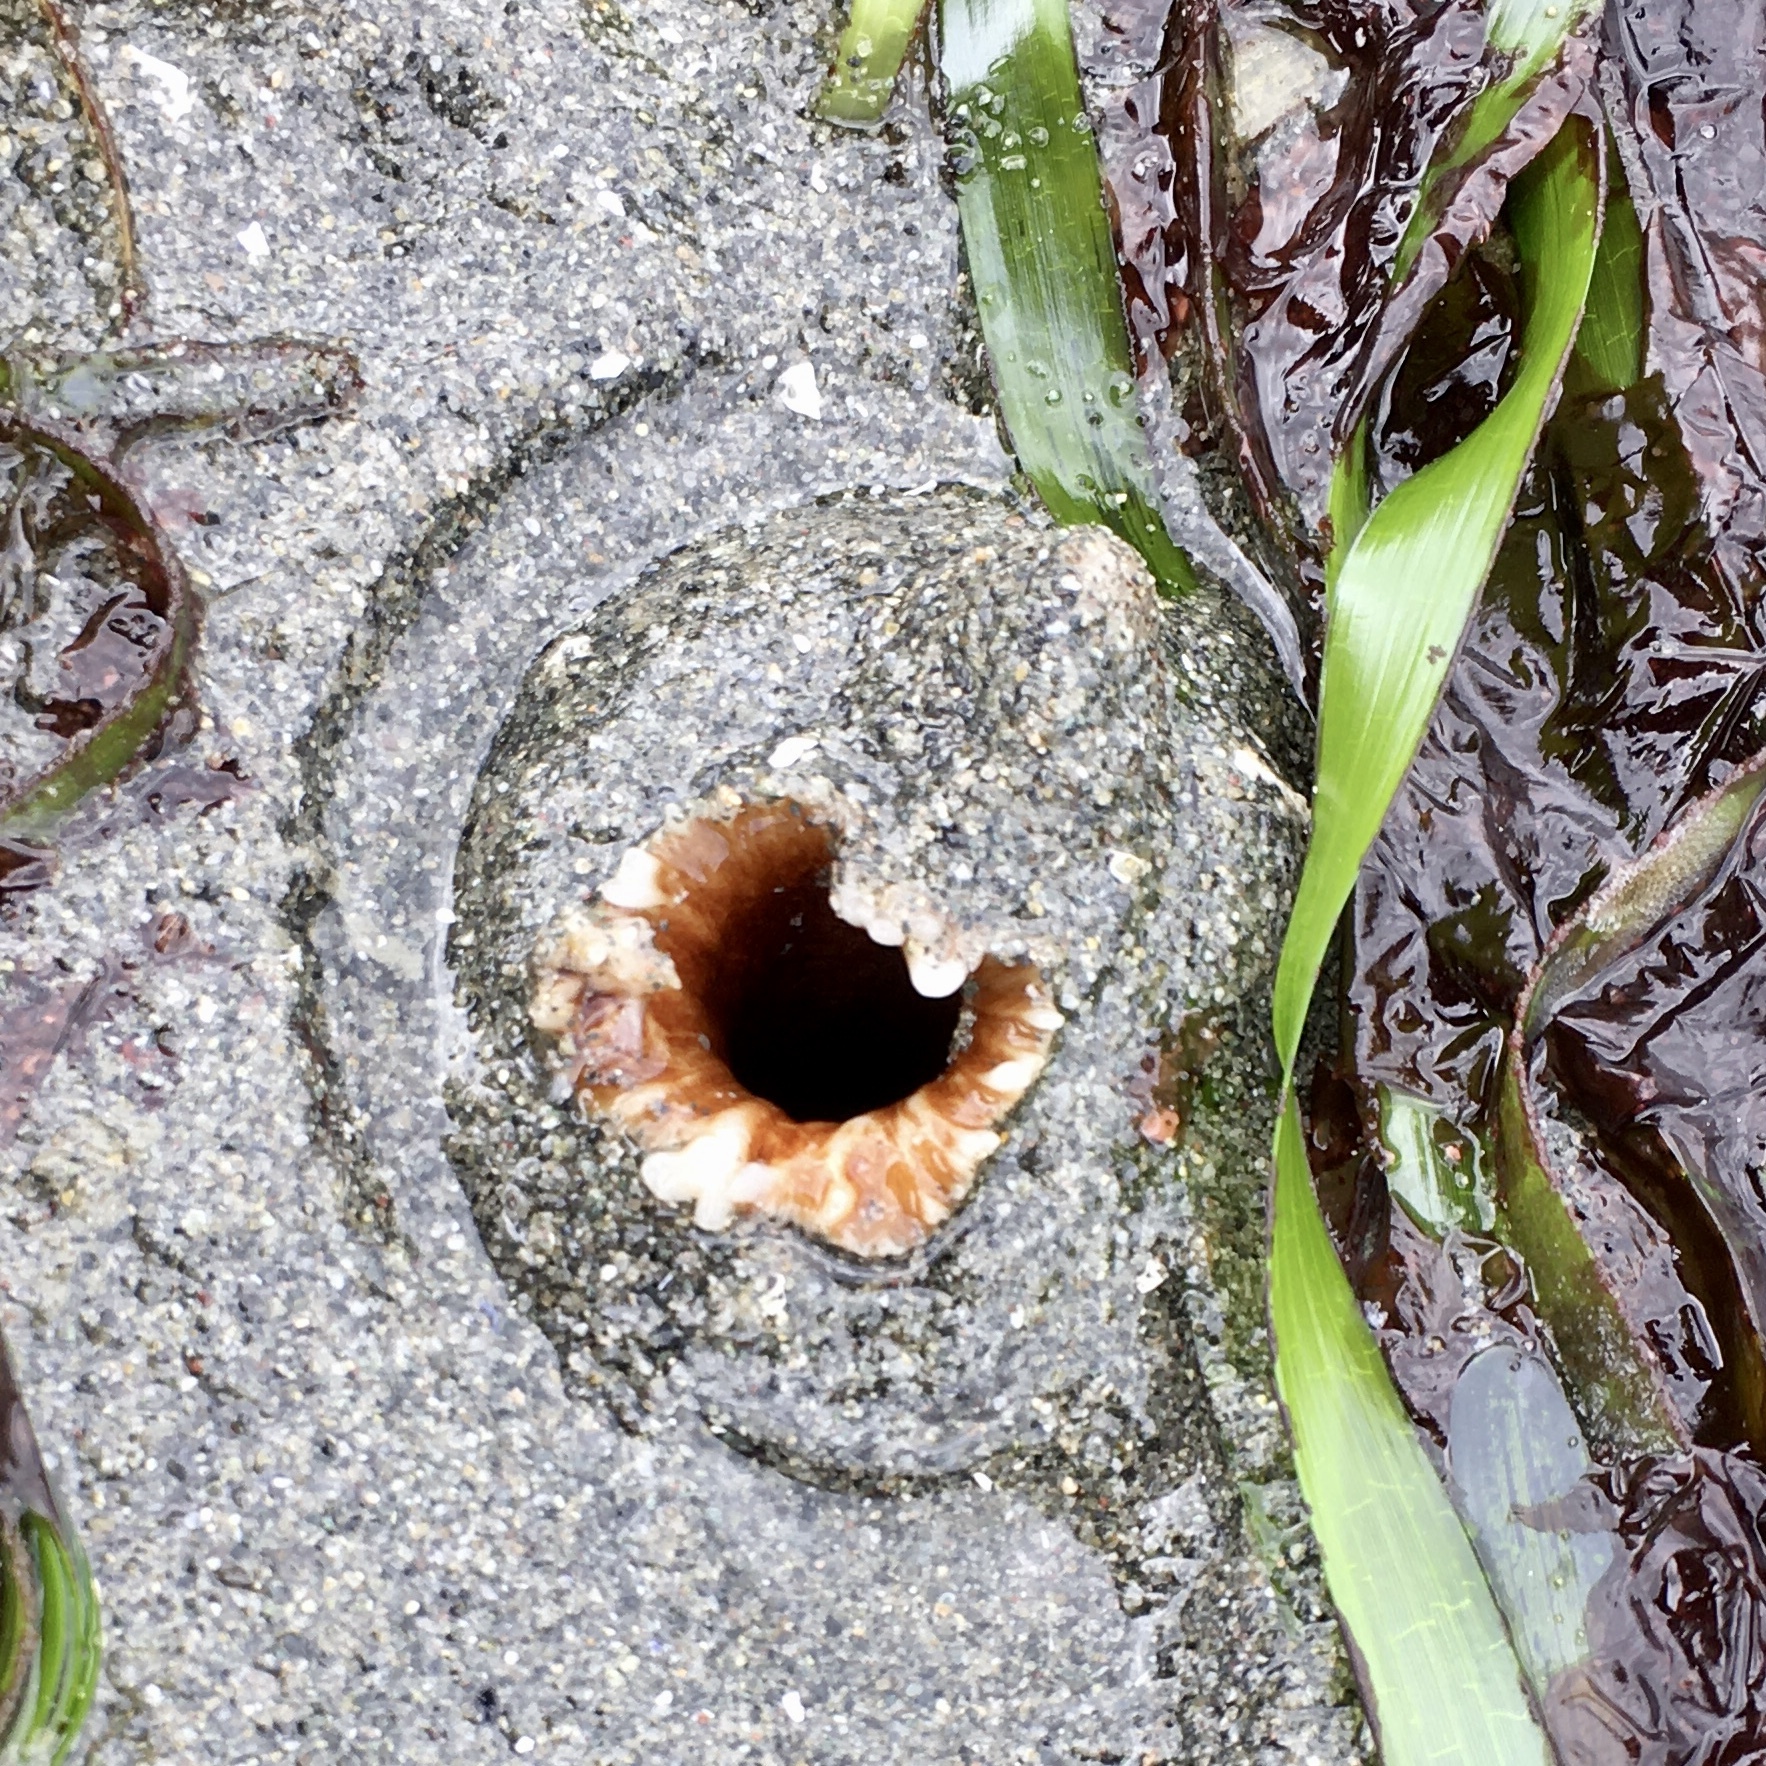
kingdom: Animalia
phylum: Mollusca
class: Bivalvia
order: Myida
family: Pholadidae
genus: Zirfaea
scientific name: Zirfaea pilsbryi
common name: Rough piddock
